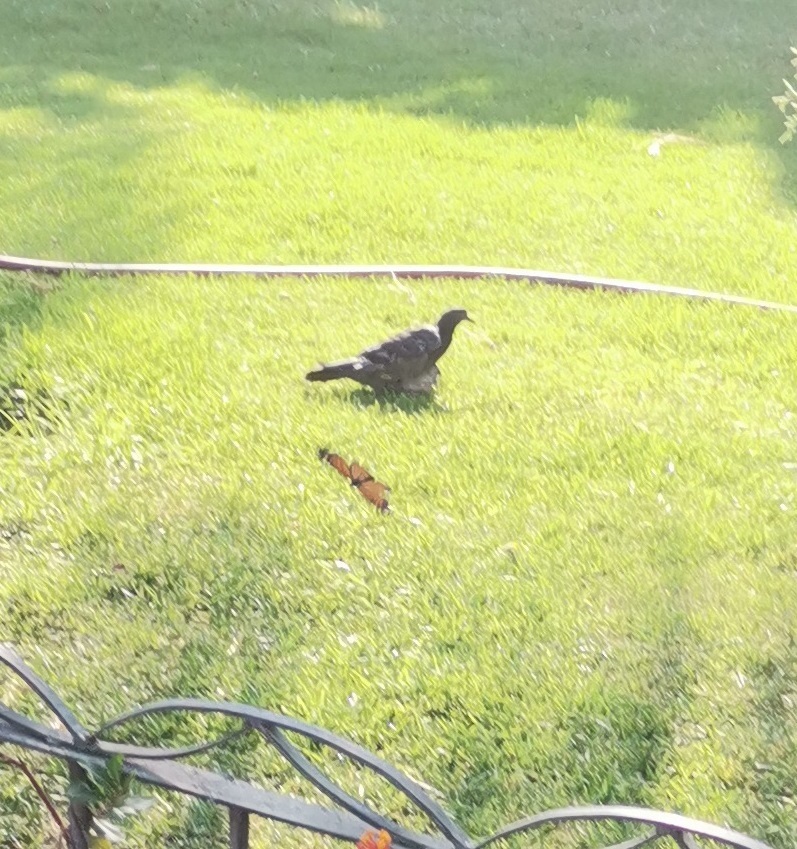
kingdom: Animalia
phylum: Chordata
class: Aves
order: Columbiformes
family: Columbidae
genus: Columba
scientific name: Columba livia
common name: Rock pigeon
